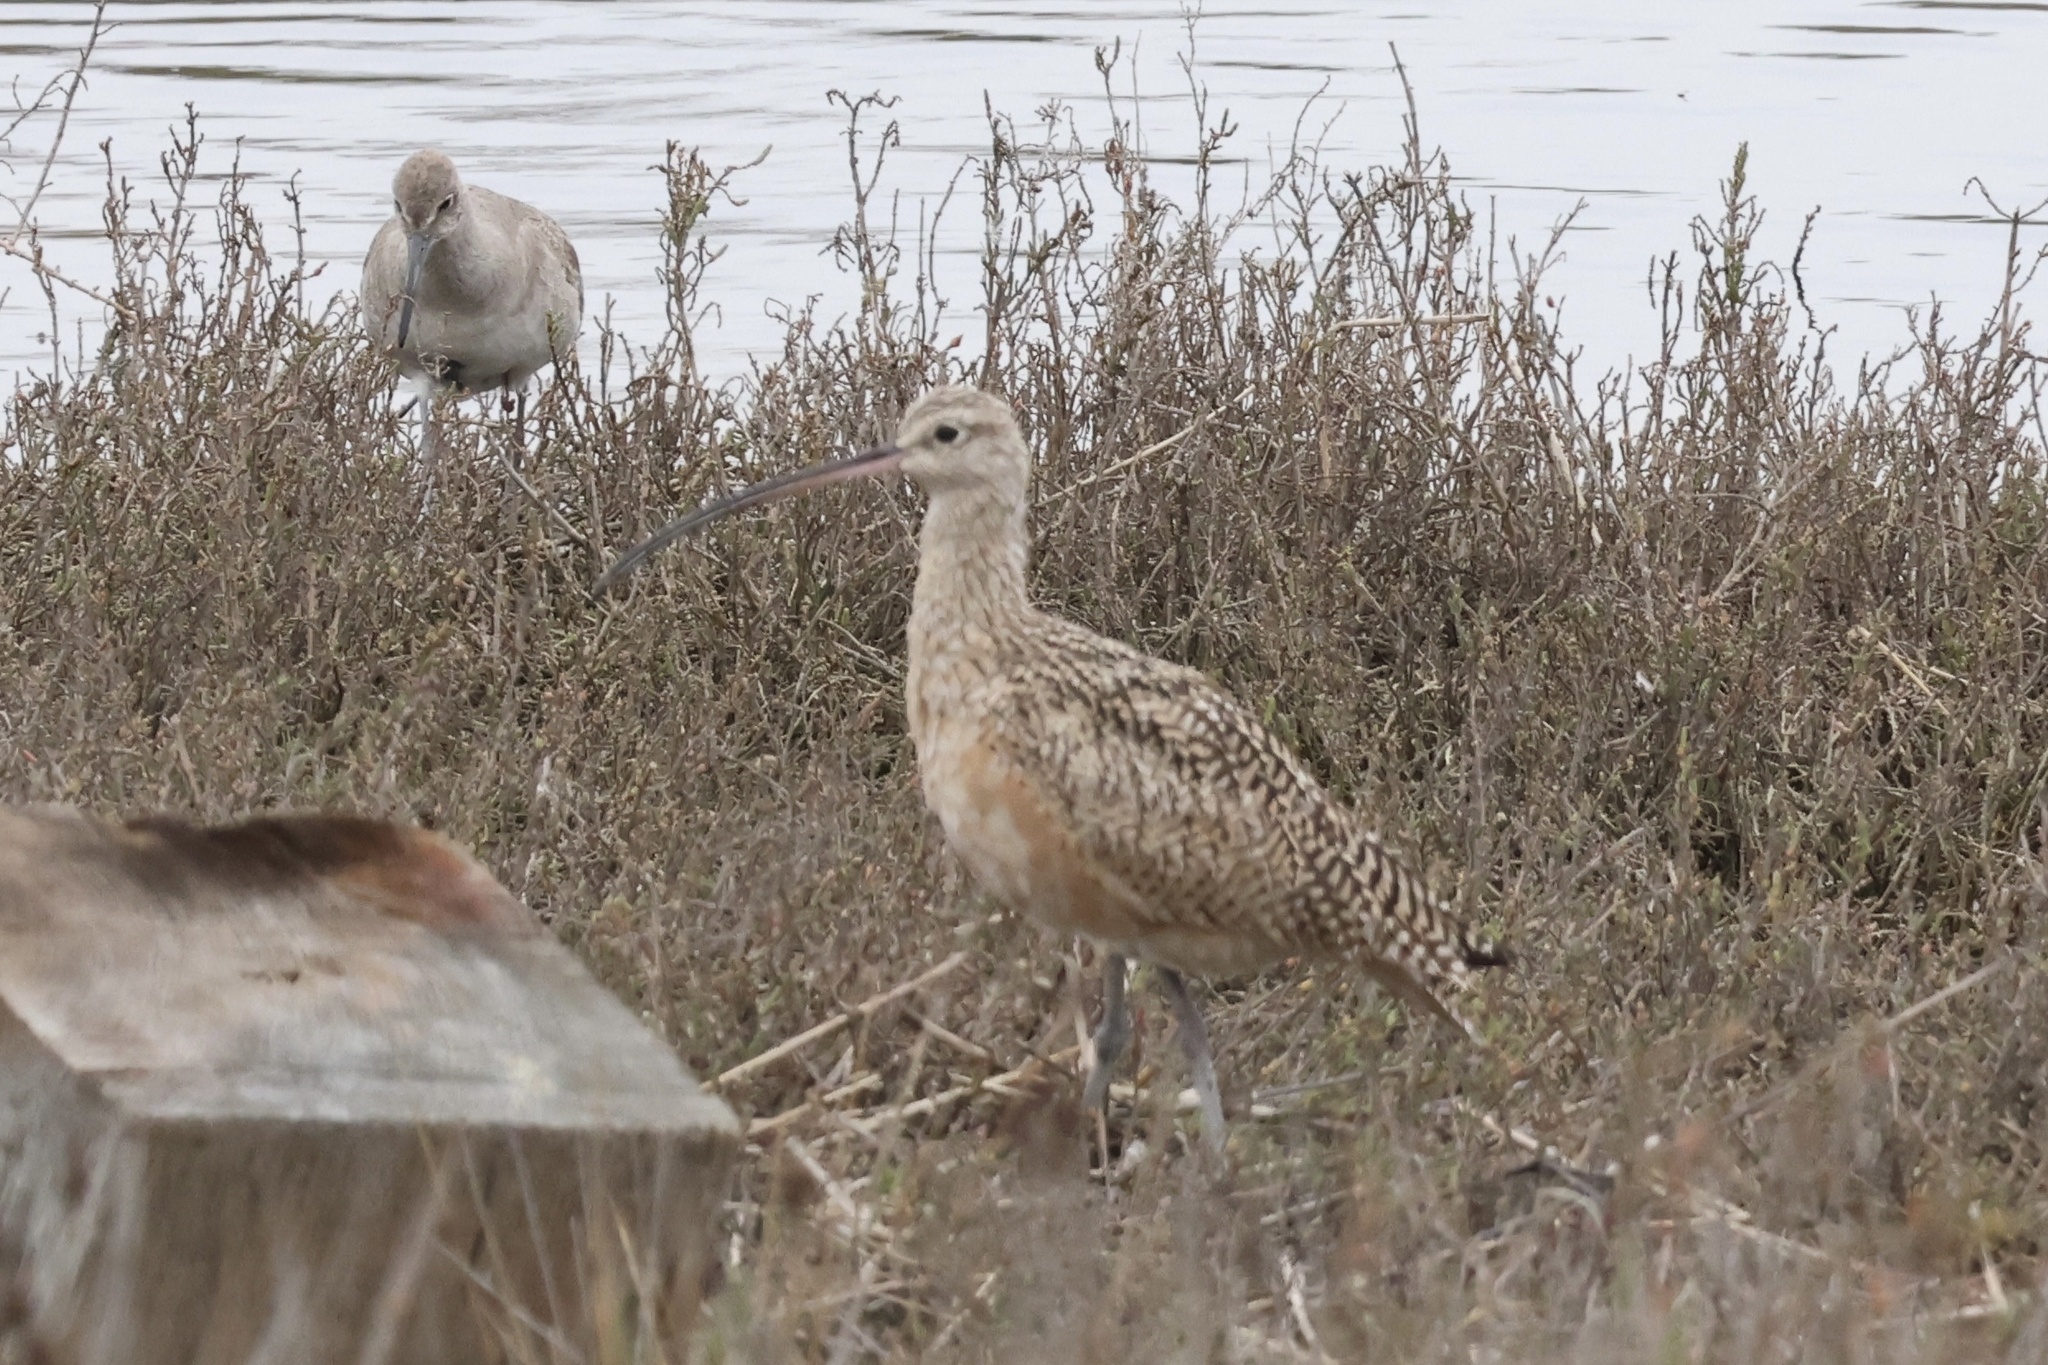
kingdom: Animalia
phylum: Chordata
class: Aves
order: Charadriiformes
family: Scolopacidae
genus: Numenius
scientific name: Numenius americanus
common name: Long-billed curlew
